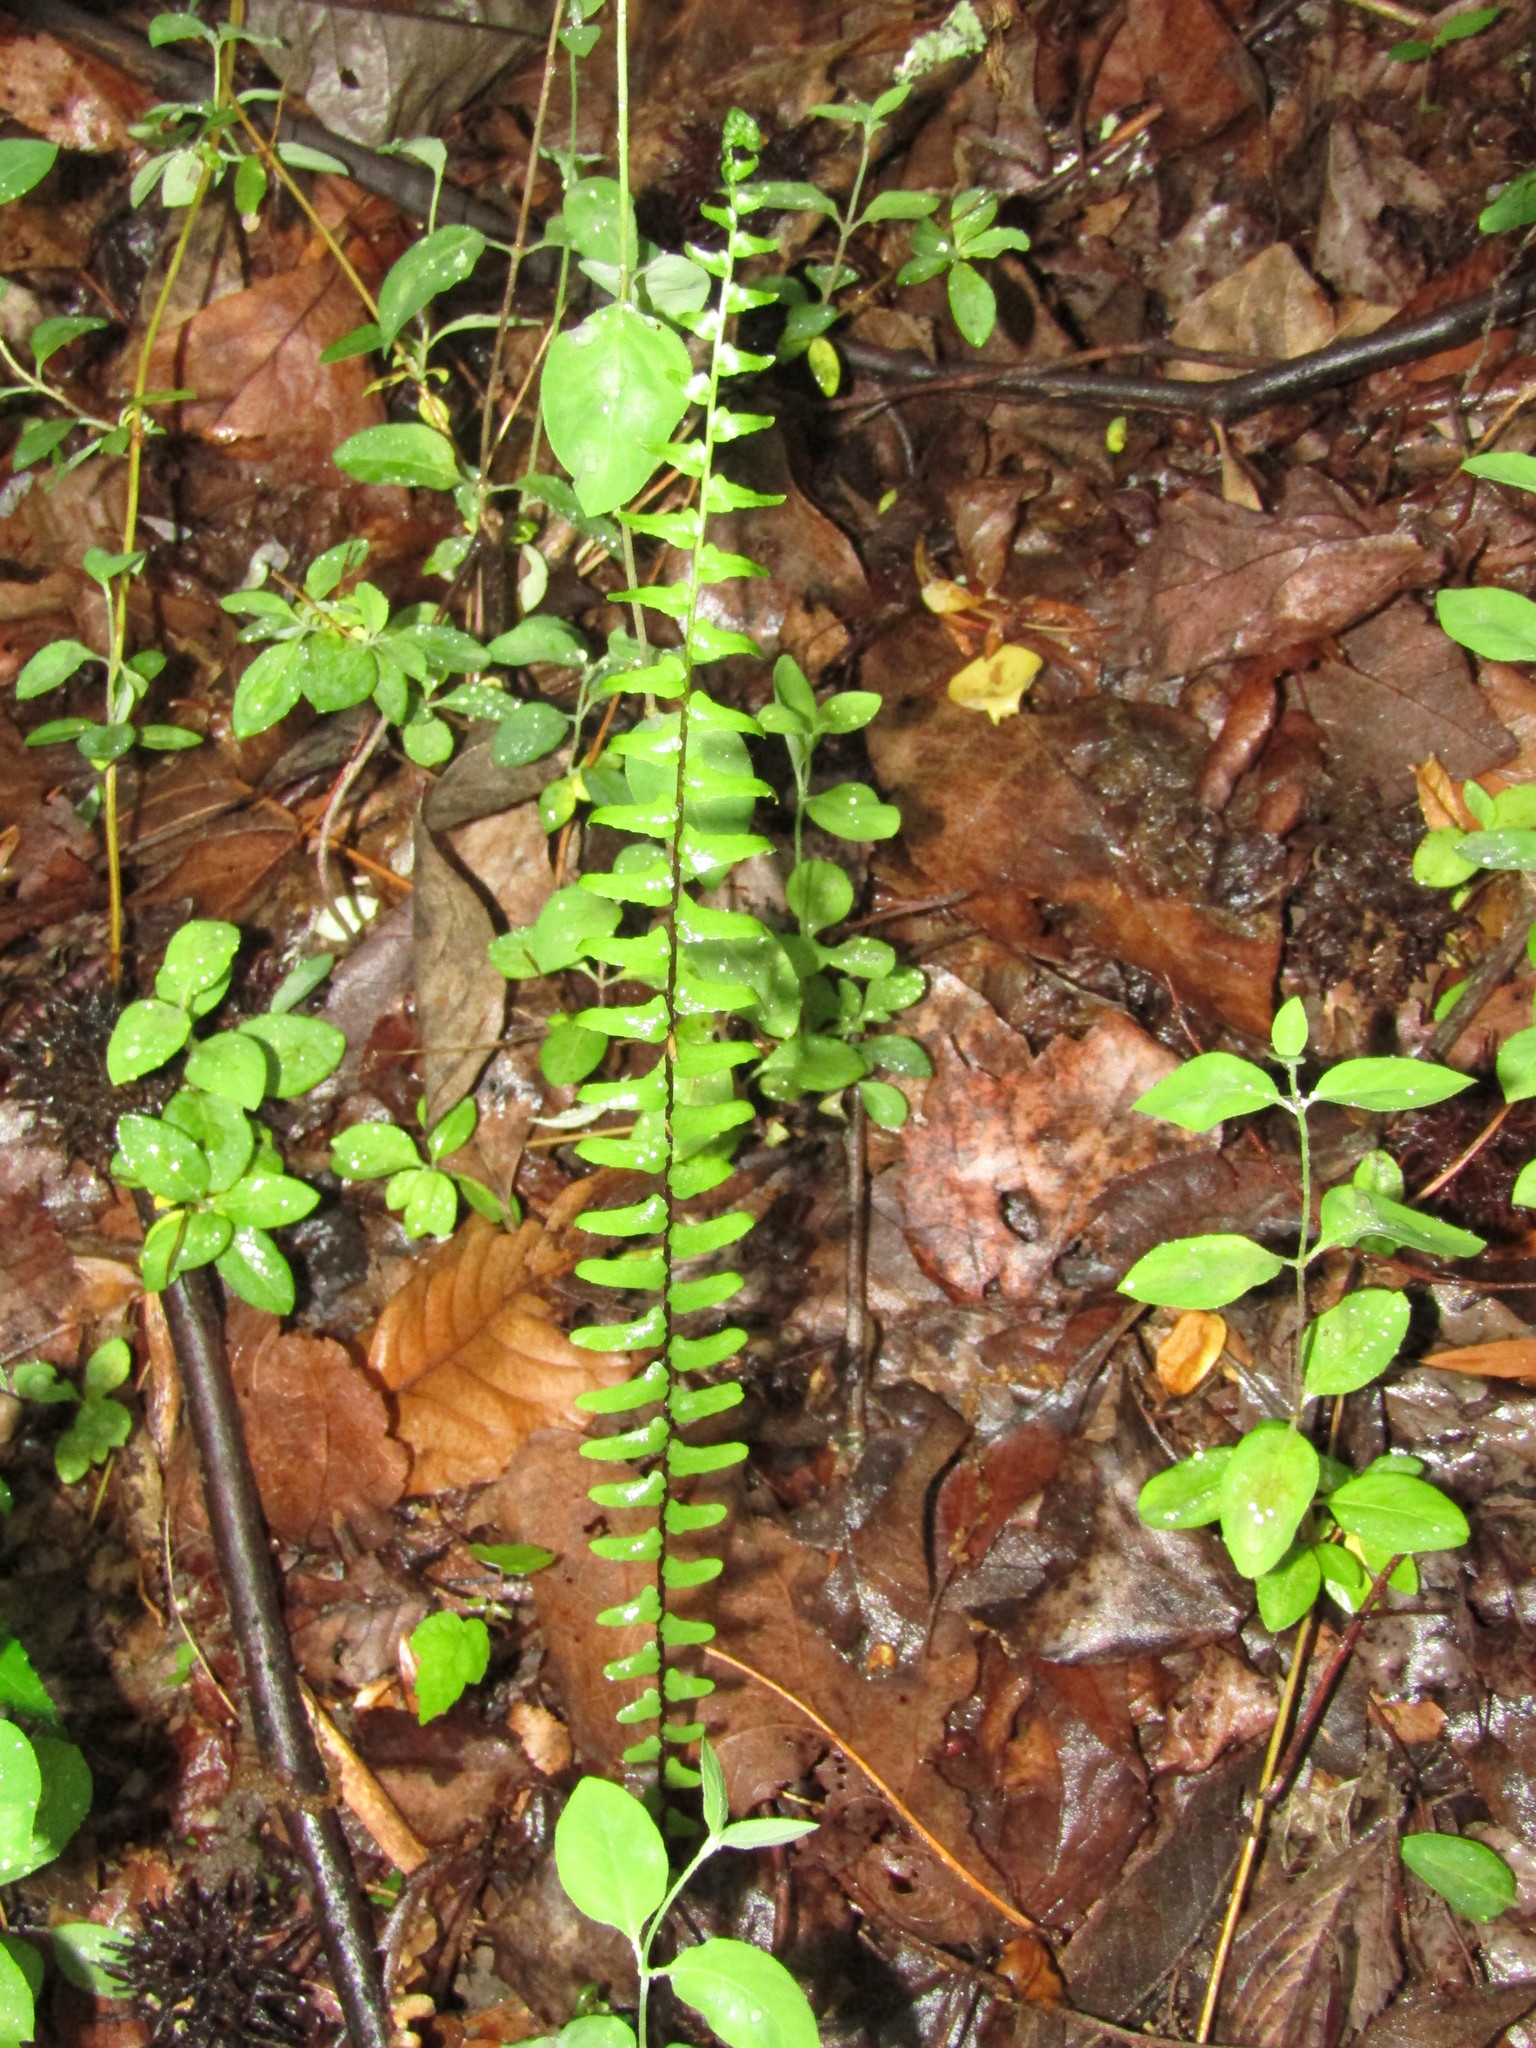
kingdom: Plantae
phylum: Tracheophyta
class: Polypodiopsida
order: Polypodiales
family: Aspleniaceae
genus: Asplenium
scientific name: Asplenium platyneuron
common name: Ebony spleenwort
